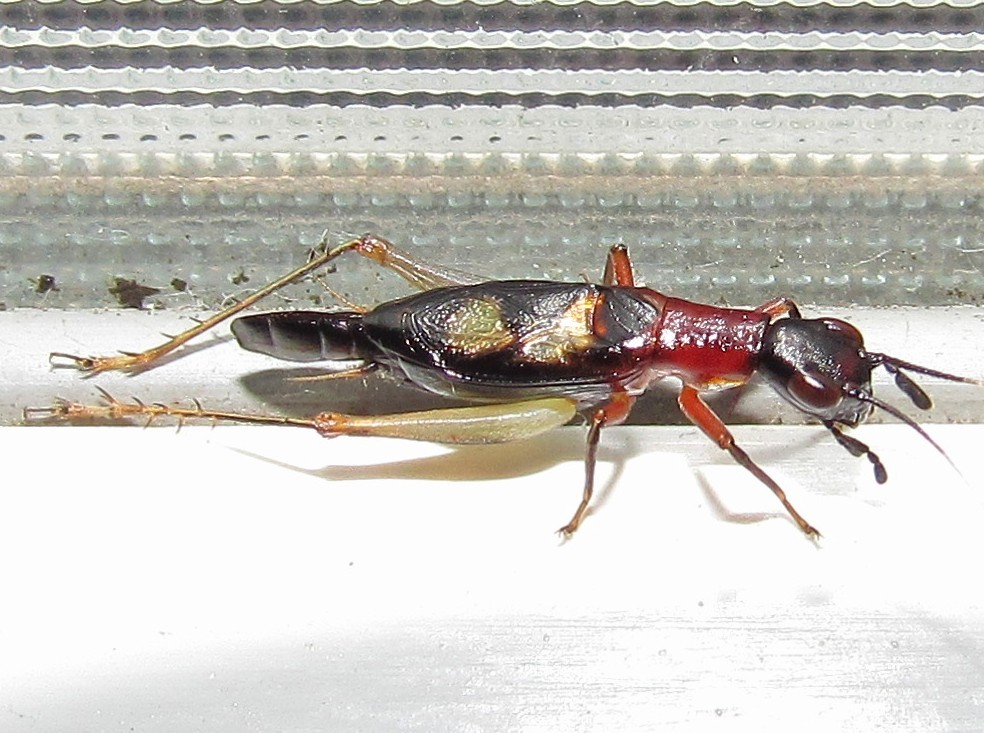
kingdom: Animalia
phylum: Arthropoda
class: Insecta
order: Orthoptera
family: Trigonidiidae
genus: Cranistus
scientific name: Cranistus colliurides
